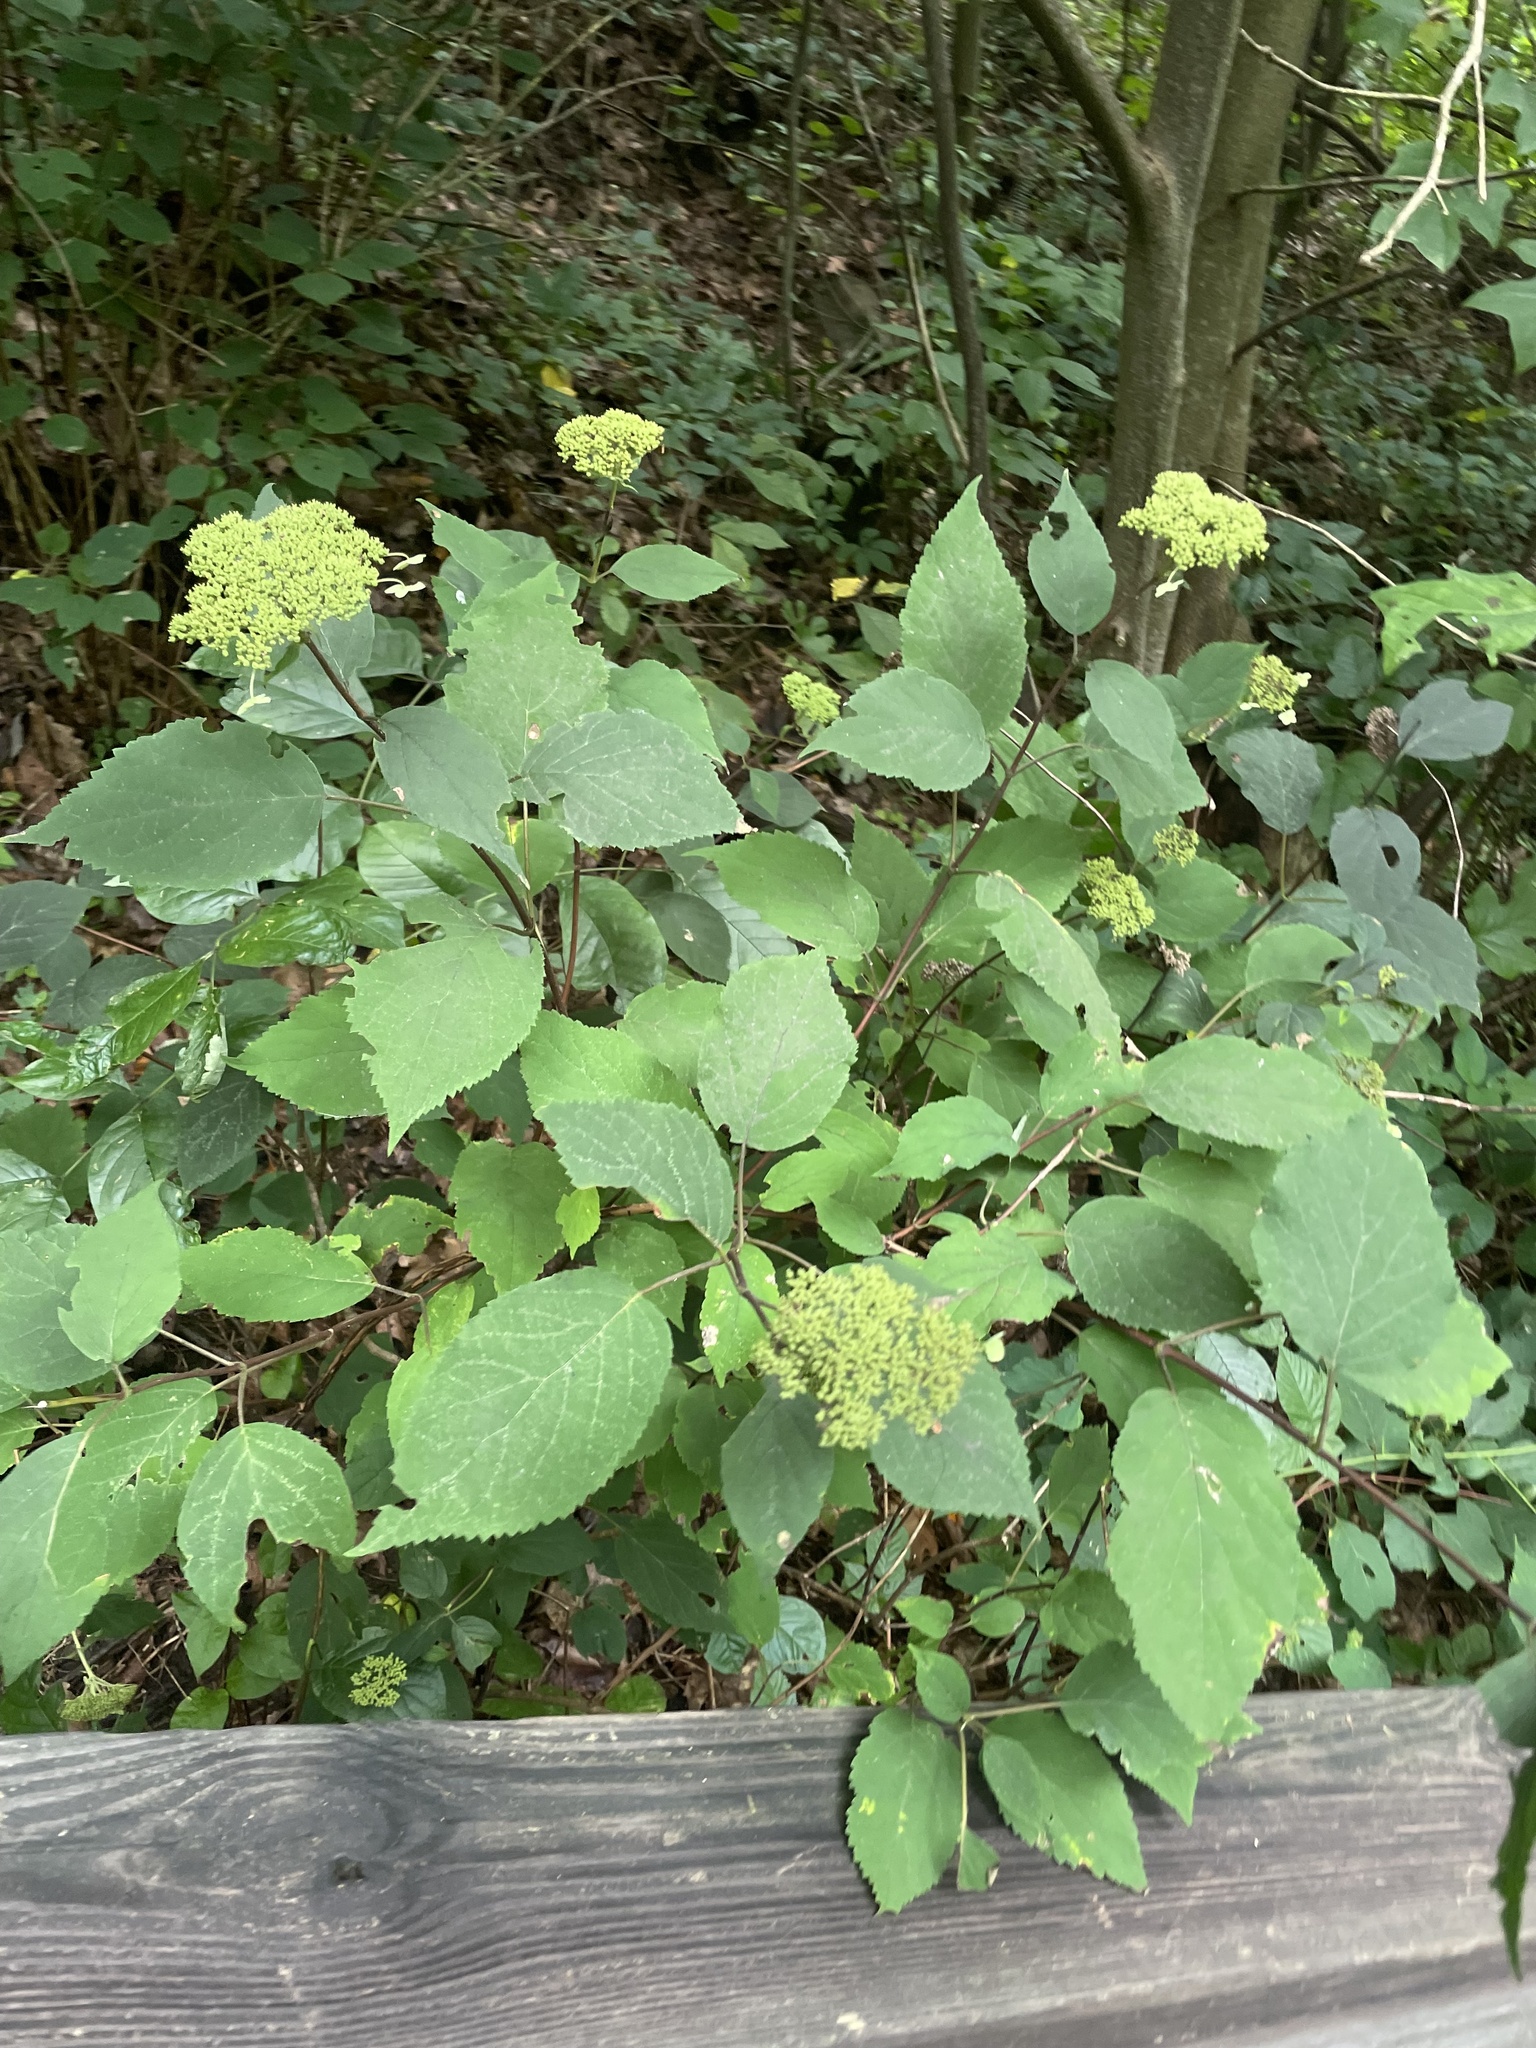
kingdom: Plantae
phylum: Tracheophyta
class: Magnoliopsida
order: Cornales
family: Hydrangeaceae
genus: Hydrangea
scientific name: Hydrangea arborescens
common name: Sevenbark
